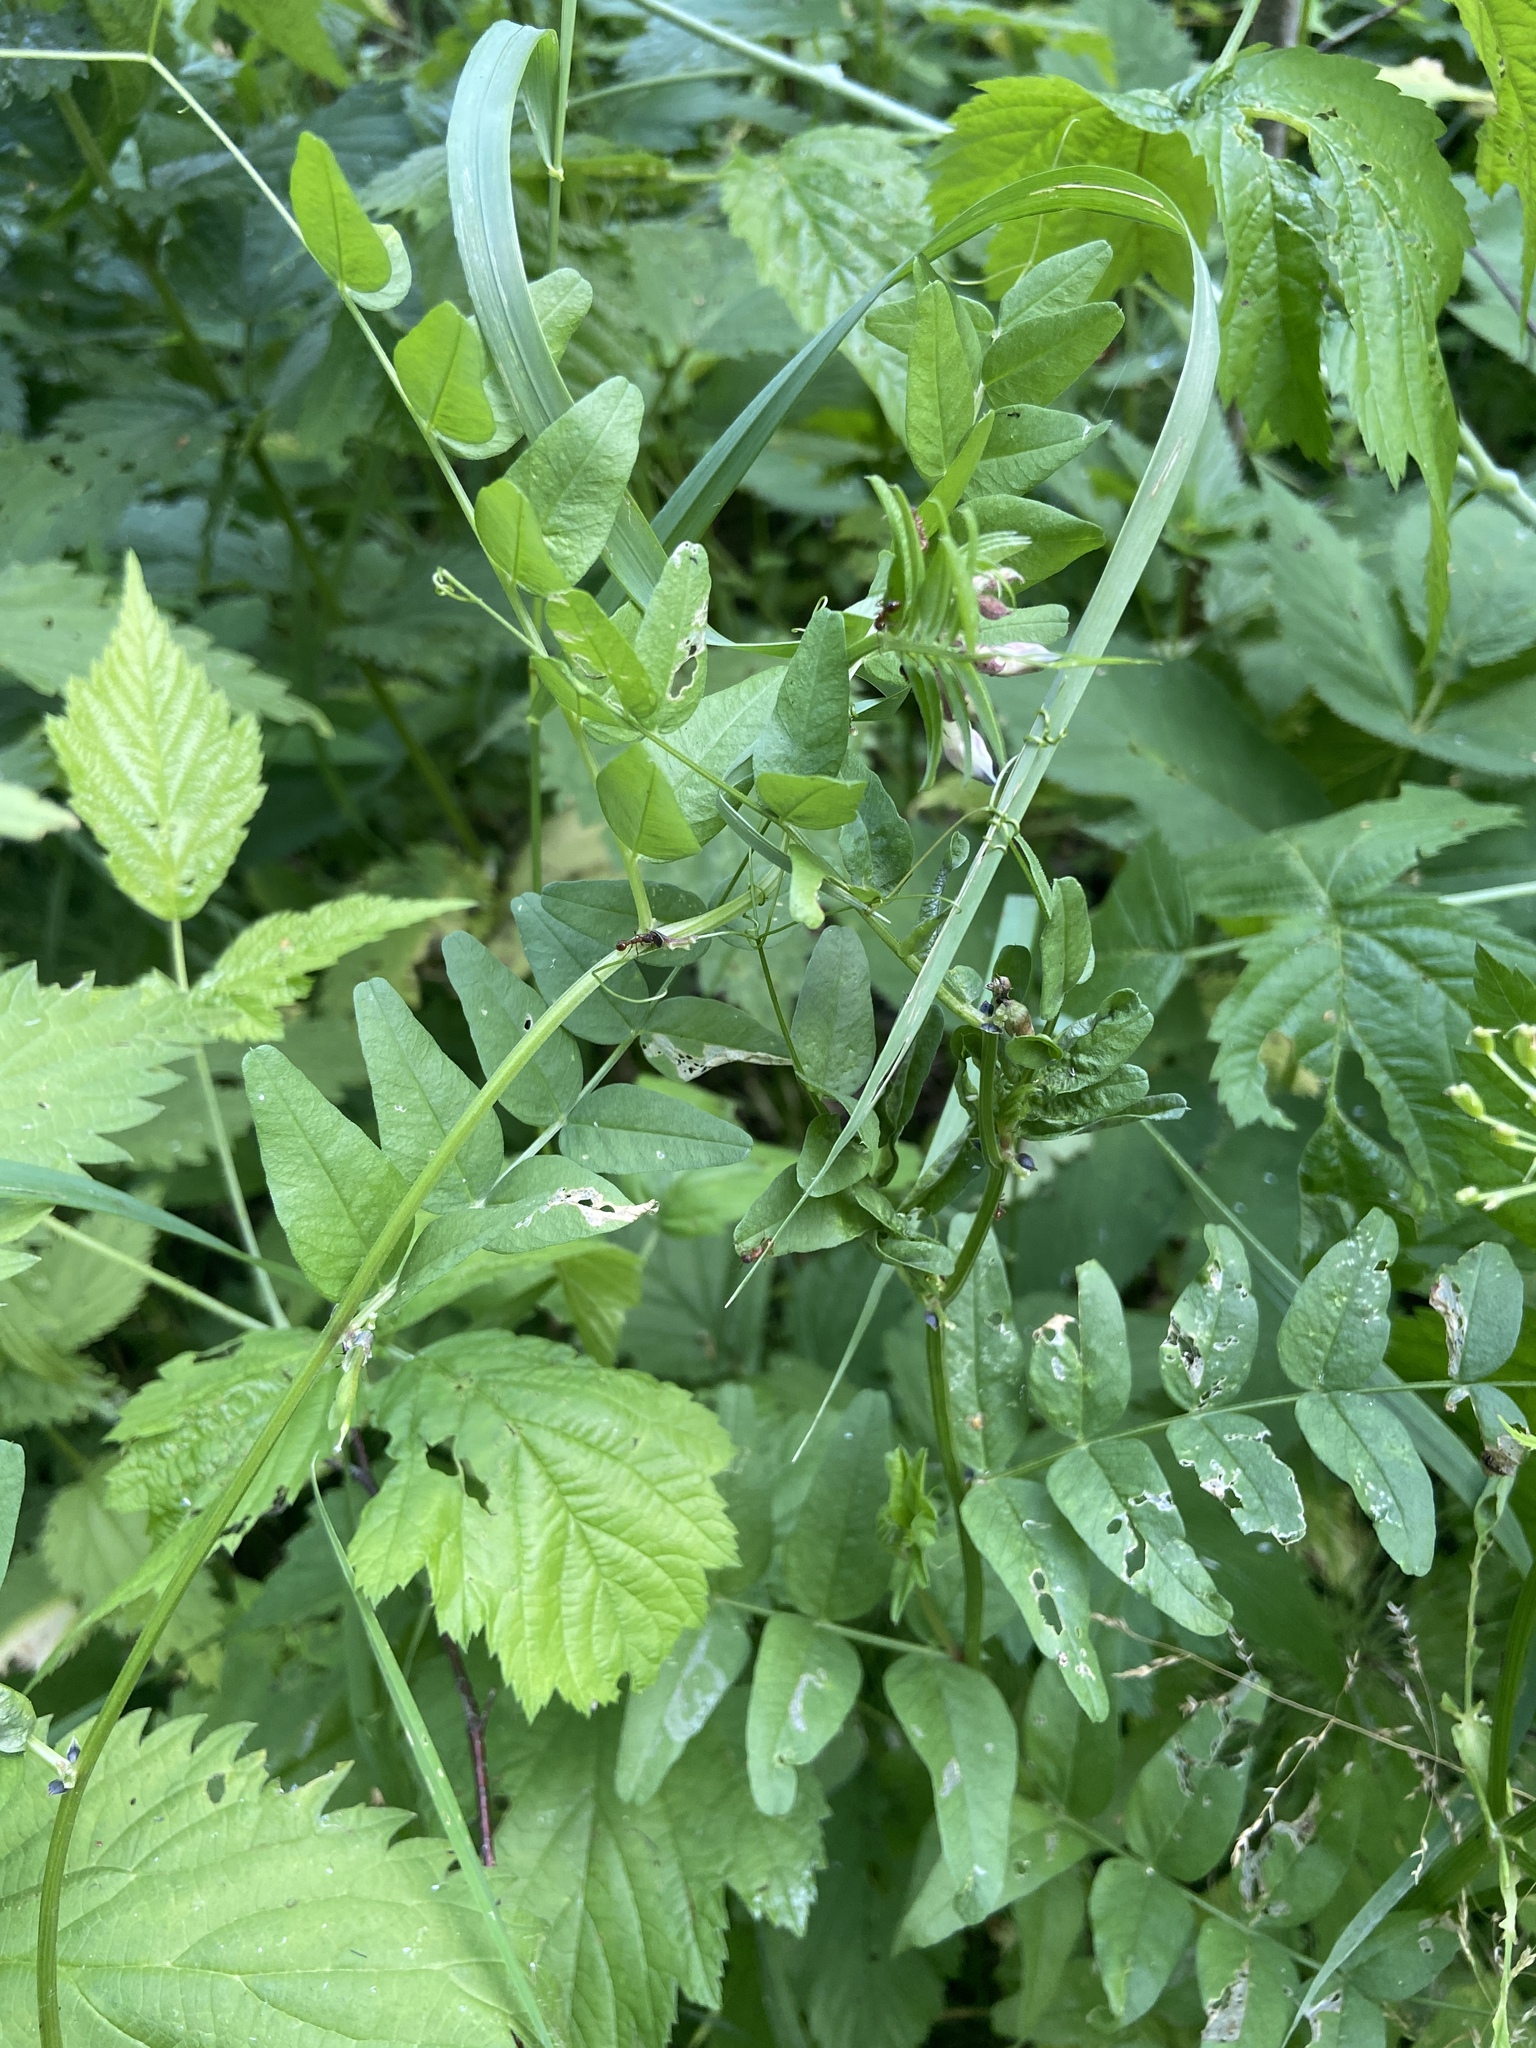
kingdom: Plantae
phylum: Tracheophyta
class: Magnoliopsida
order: Fabales
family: Fabaceae
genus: Vicia
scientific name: Vicia sepium
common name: Bush vetch
